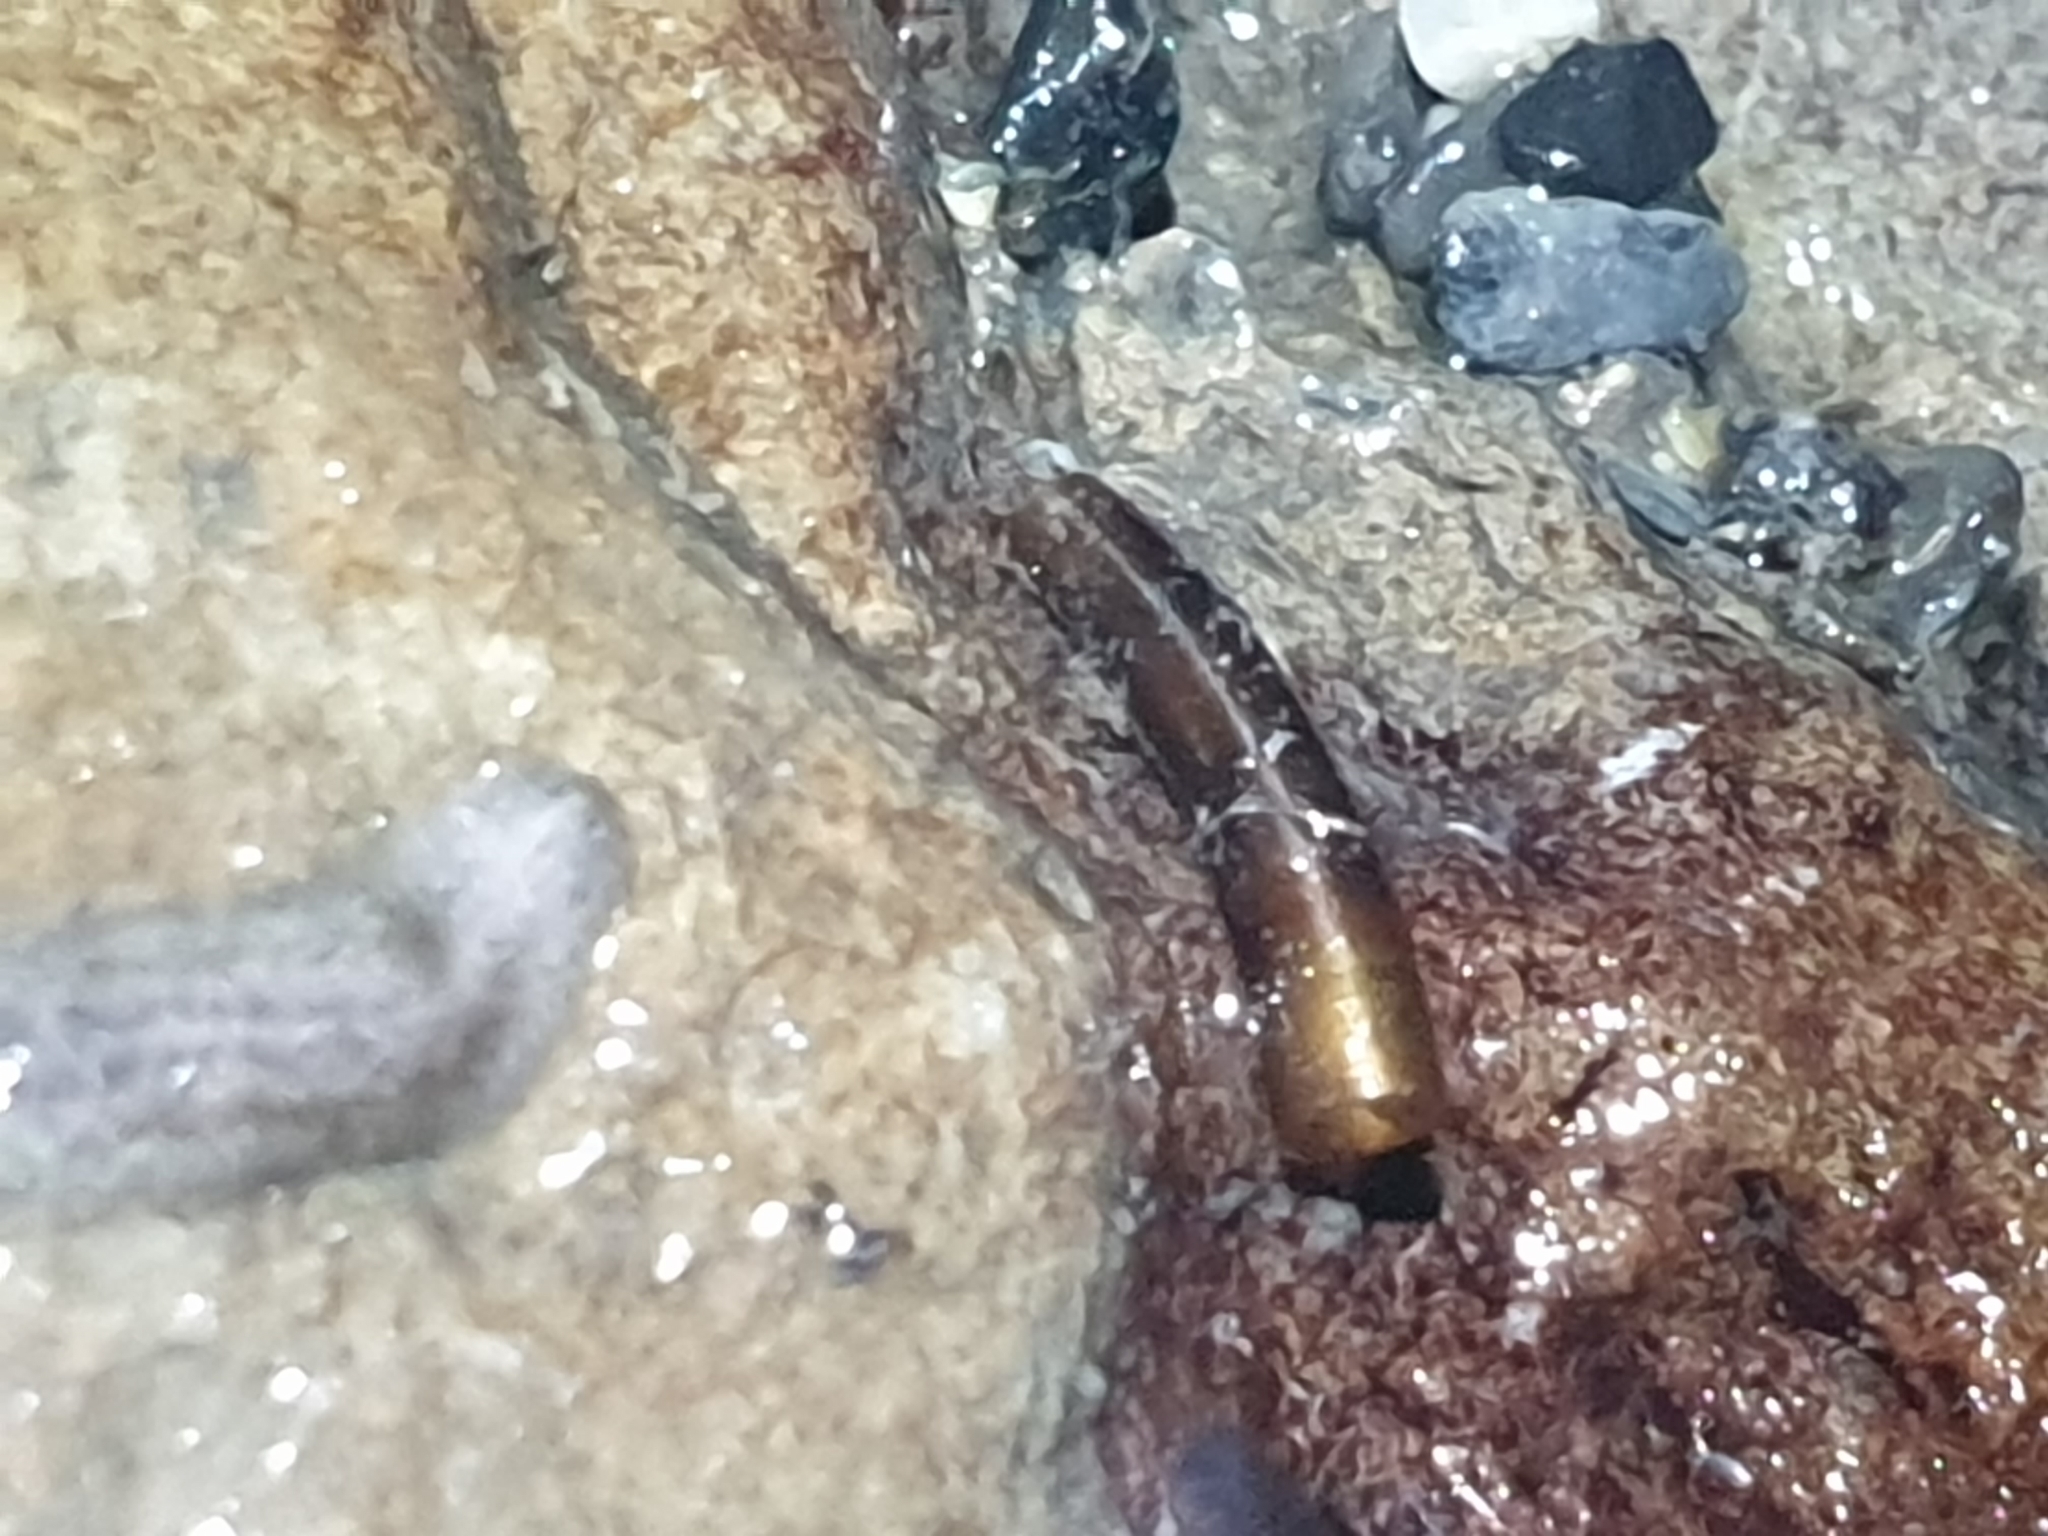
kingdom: Animalia
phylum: Arthropoda
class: Insecta
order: Trichoptera
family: Conoesucidae
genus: Olinga
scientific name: Olinga
